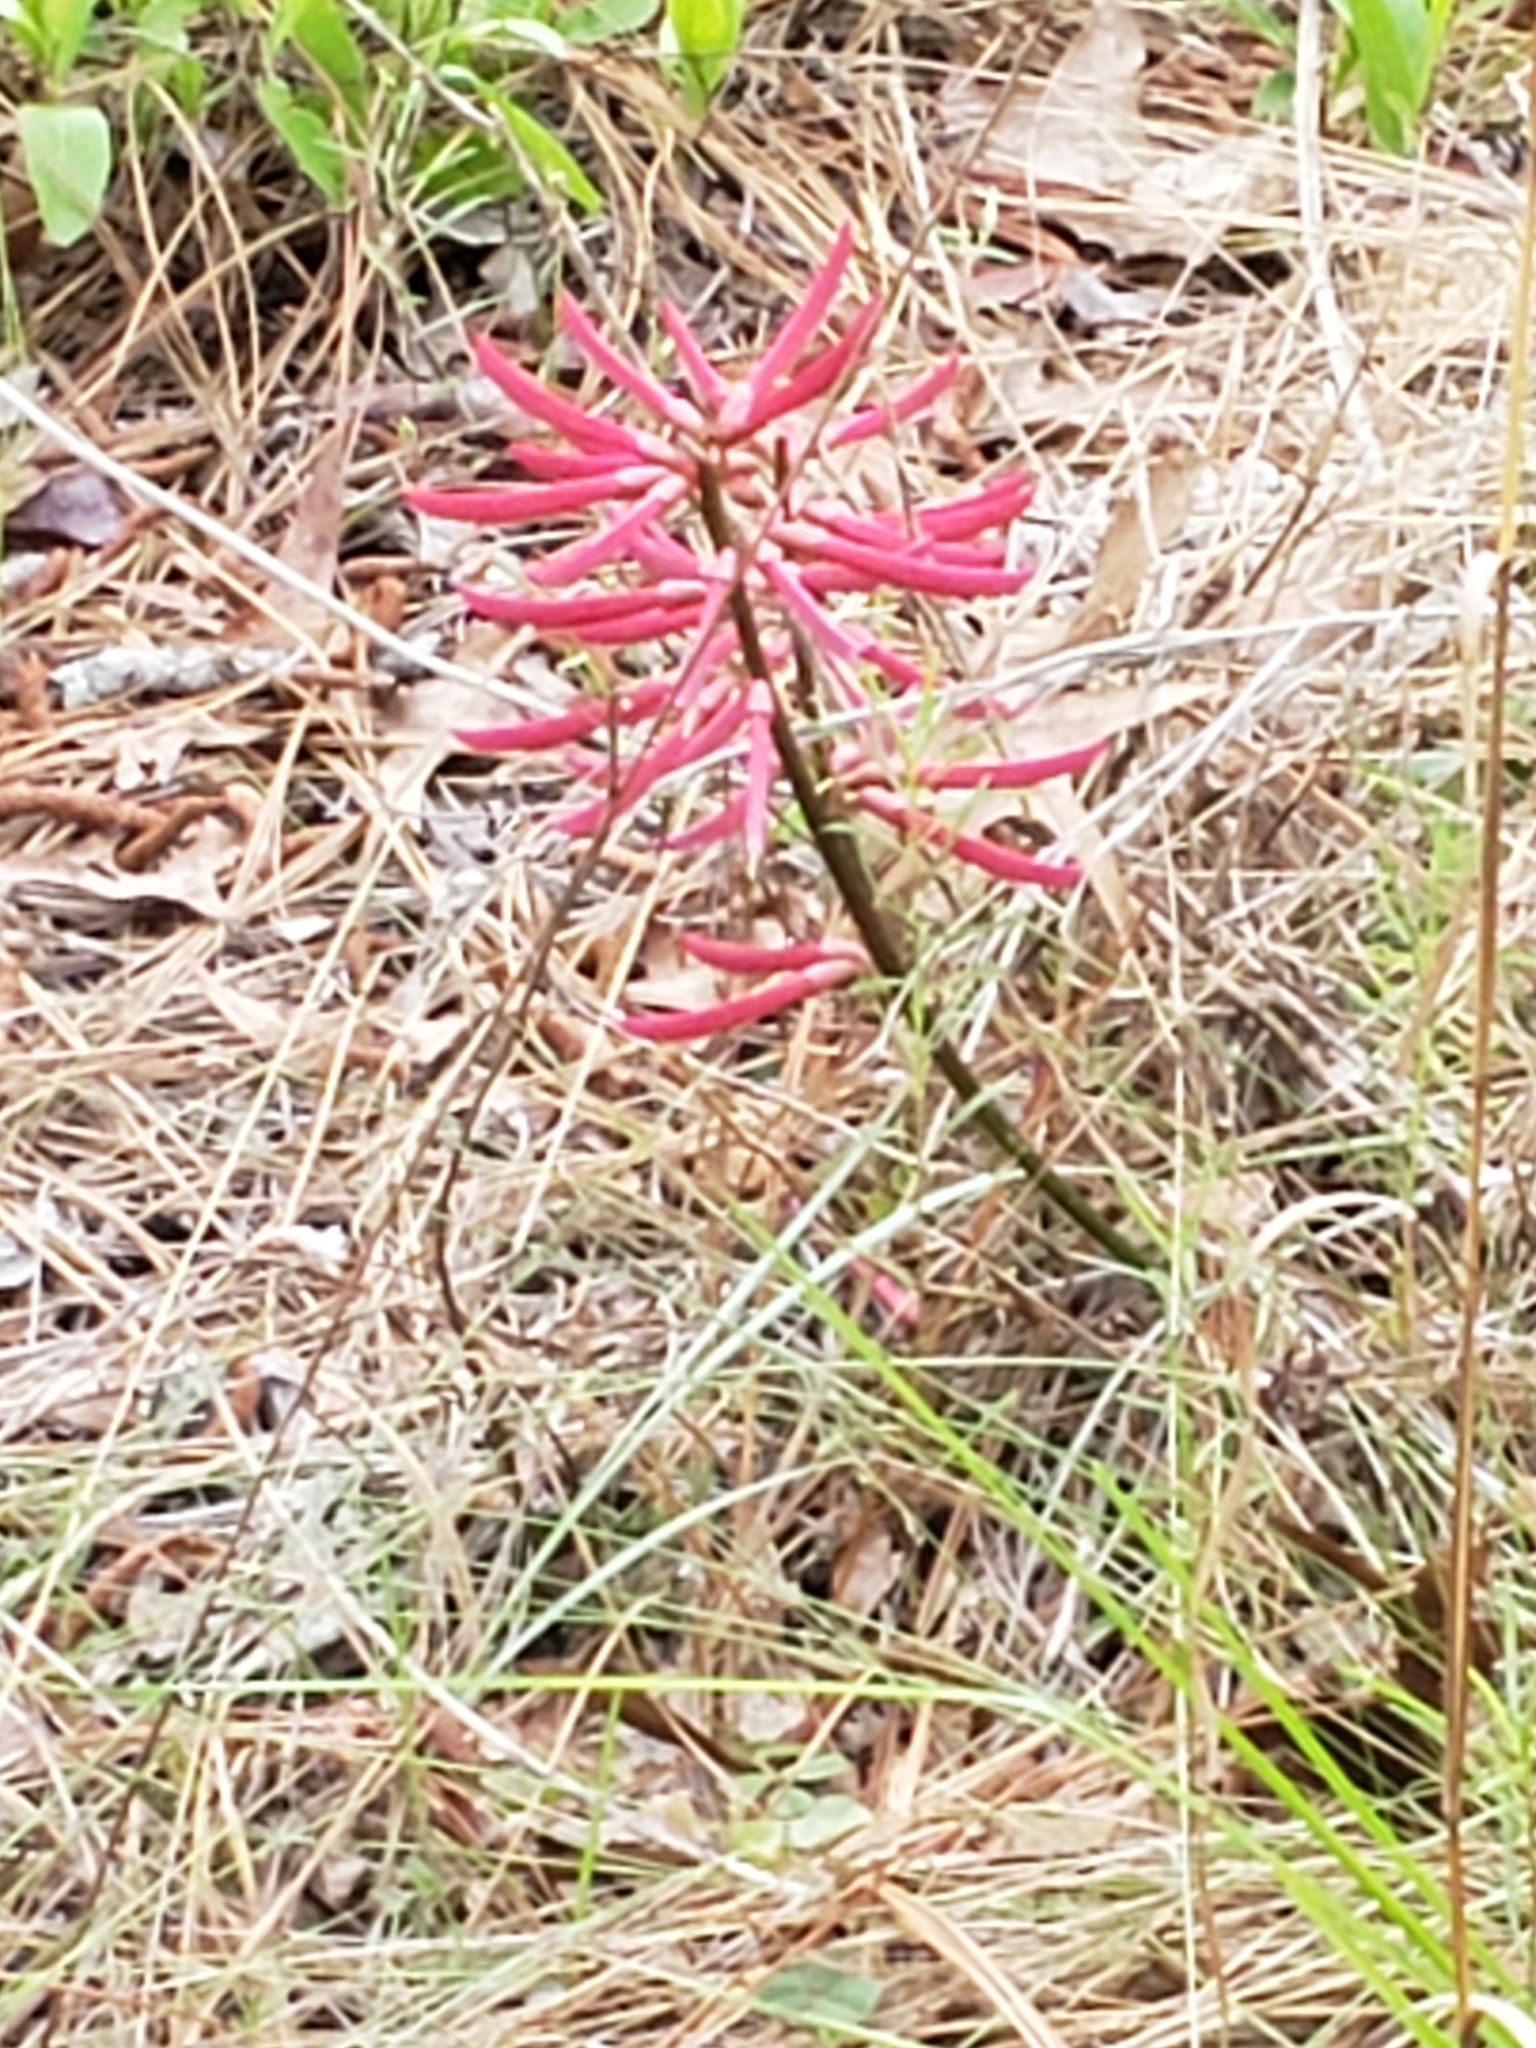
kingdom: Plantae
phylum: Tracheophyta
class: Magnoliopsida
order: Fabales
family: Fabaceae
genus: Erythrina
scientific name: Erythrina herbacea
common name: Coral-bean
